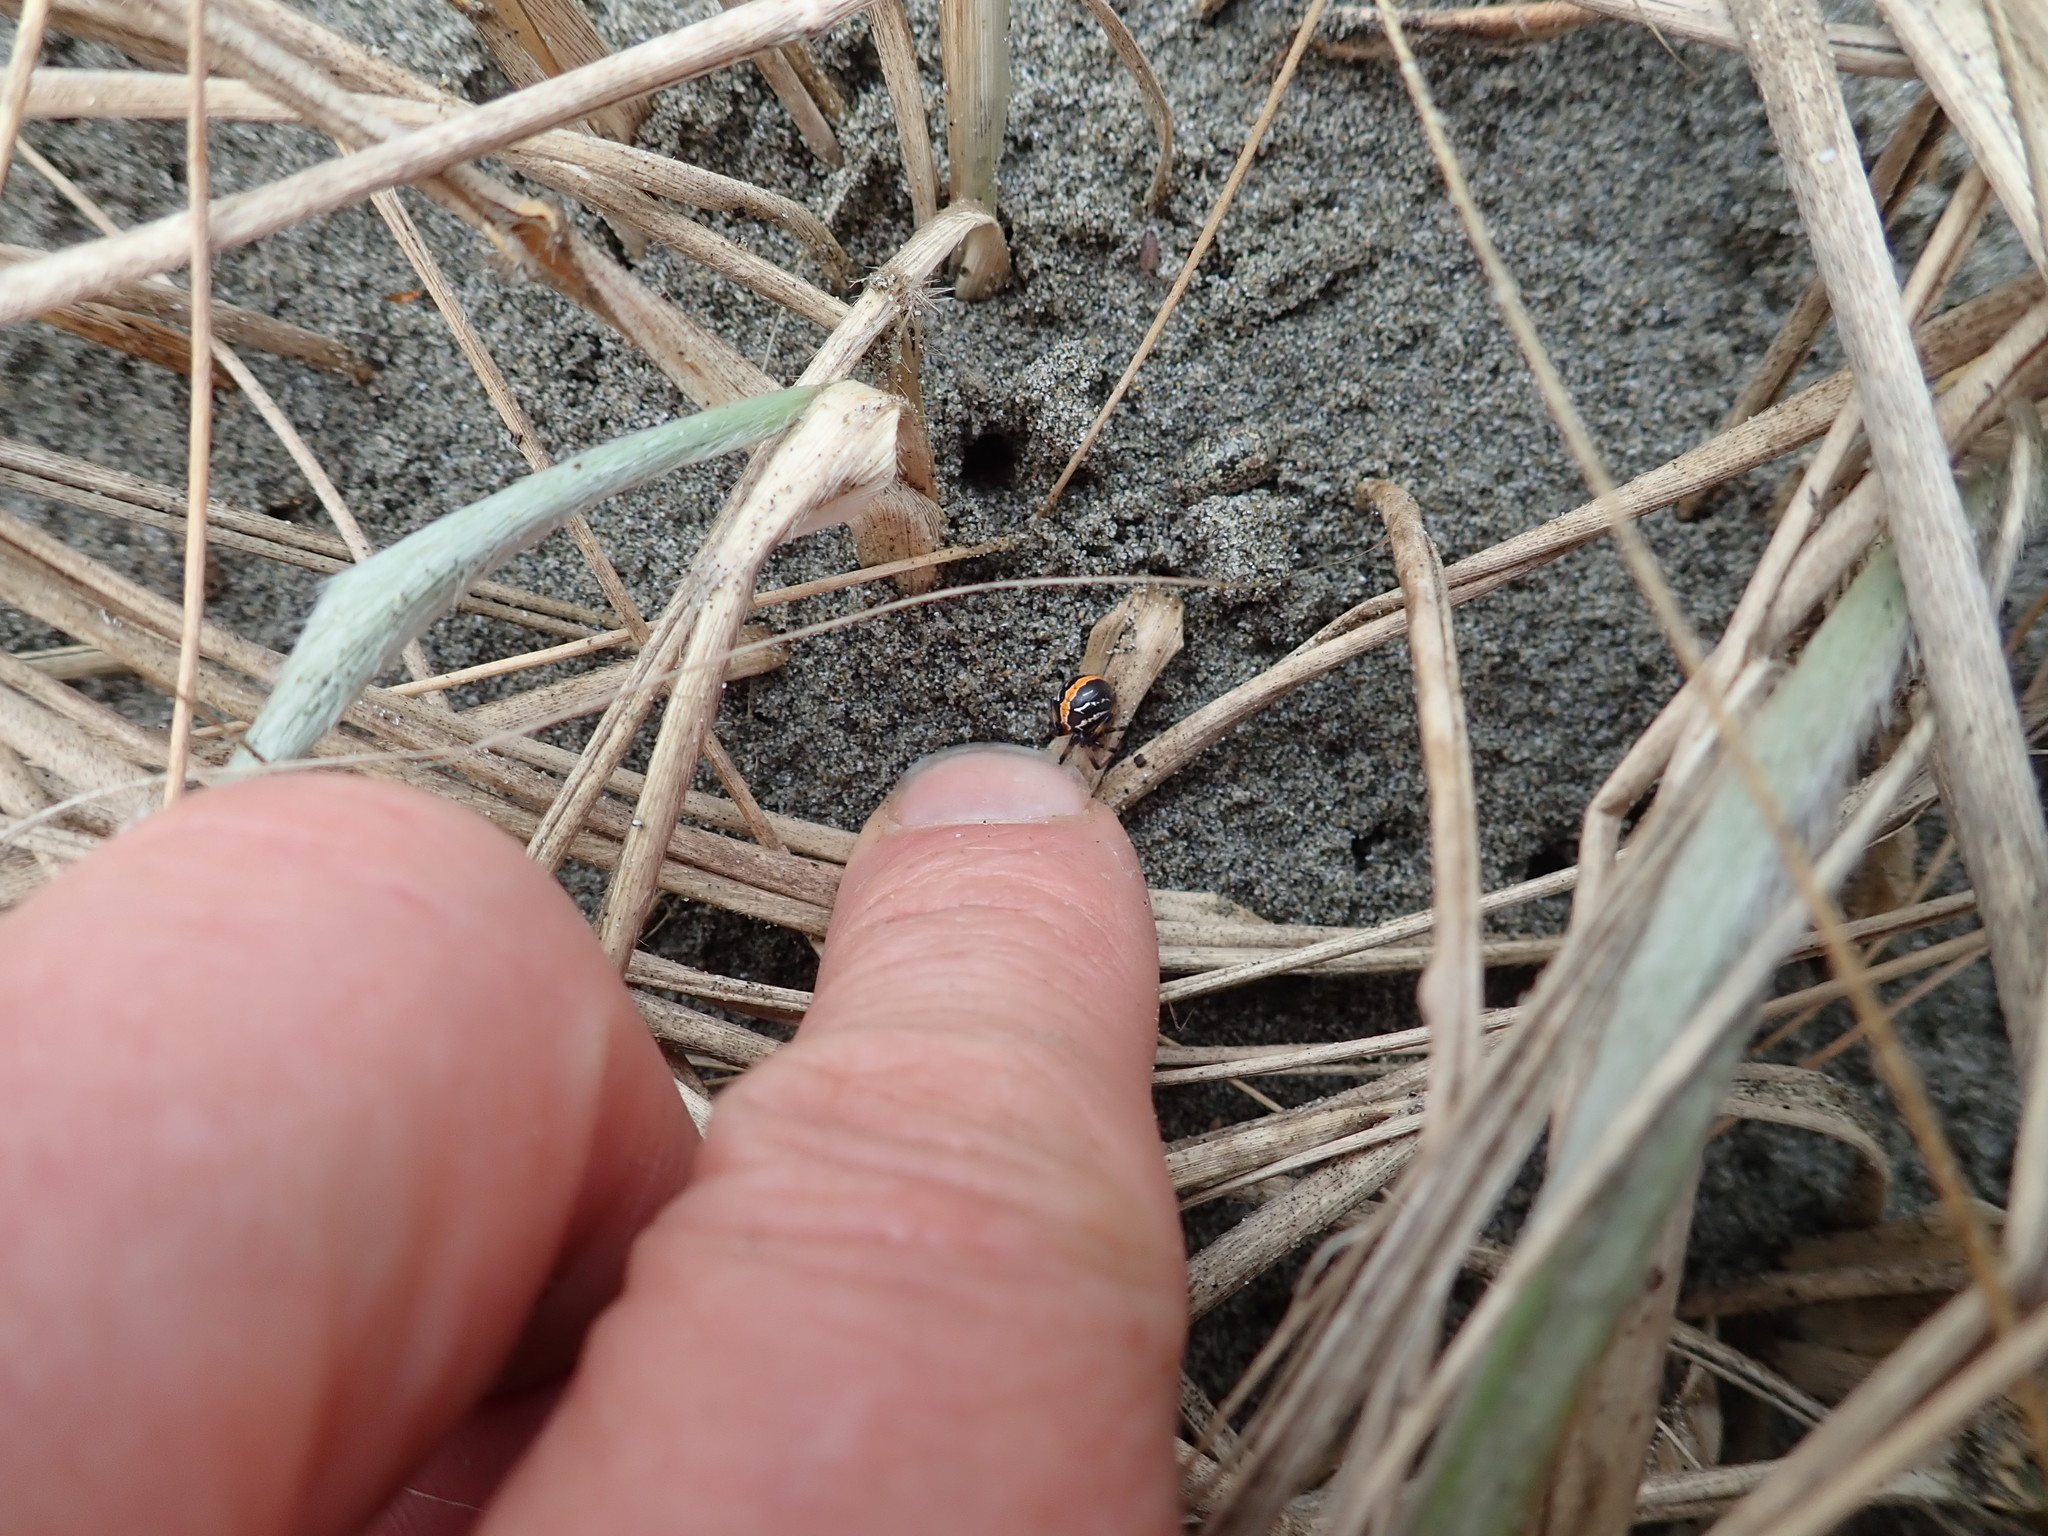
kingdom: Animalia
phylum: Arthropoda
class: Arachnida
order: Araneae
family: Theridiidae
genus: Latrodectus
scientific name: Latrodectus katipo
